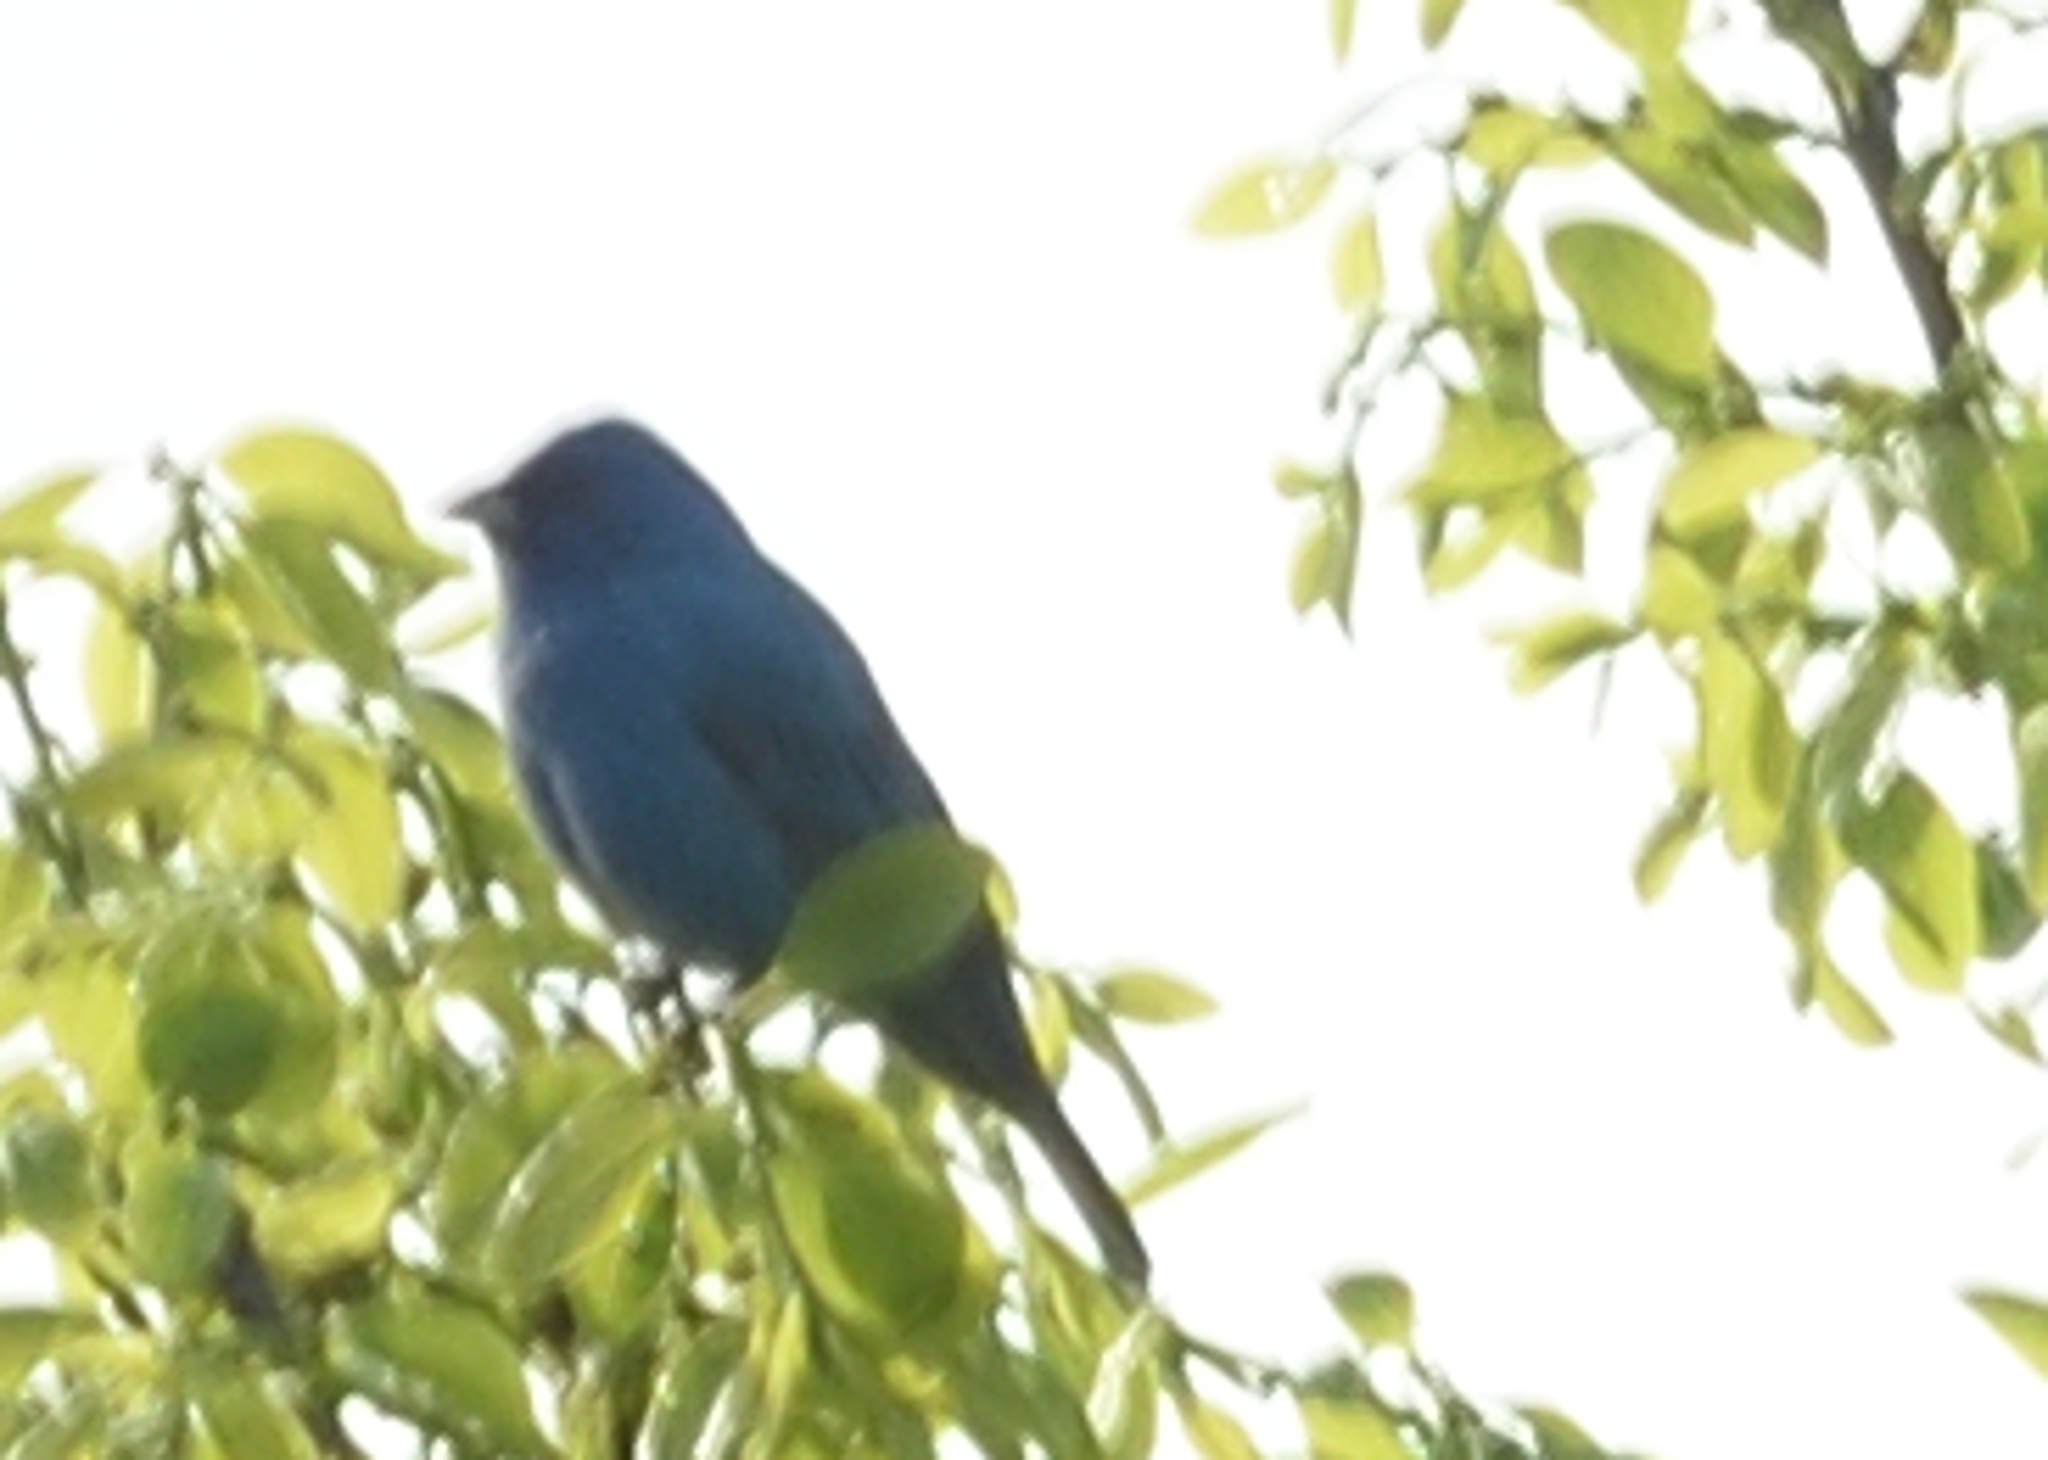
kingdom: Animalia
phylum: Chordata
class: Aves
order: Passeriformes
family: Cardinalidae
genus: Passerina
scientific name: Passerina cyanea
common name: Indigo bunting
